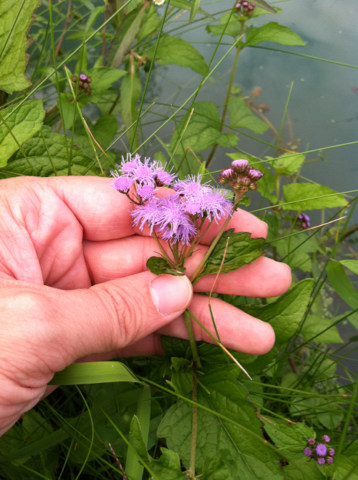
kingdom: Plantae
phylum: Tracheophyta
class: Magnoliopsida
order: Asterales
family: Asteraceae
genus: Conoclinium
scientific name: Conoclinium coelestinum
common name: Blue mistflower
